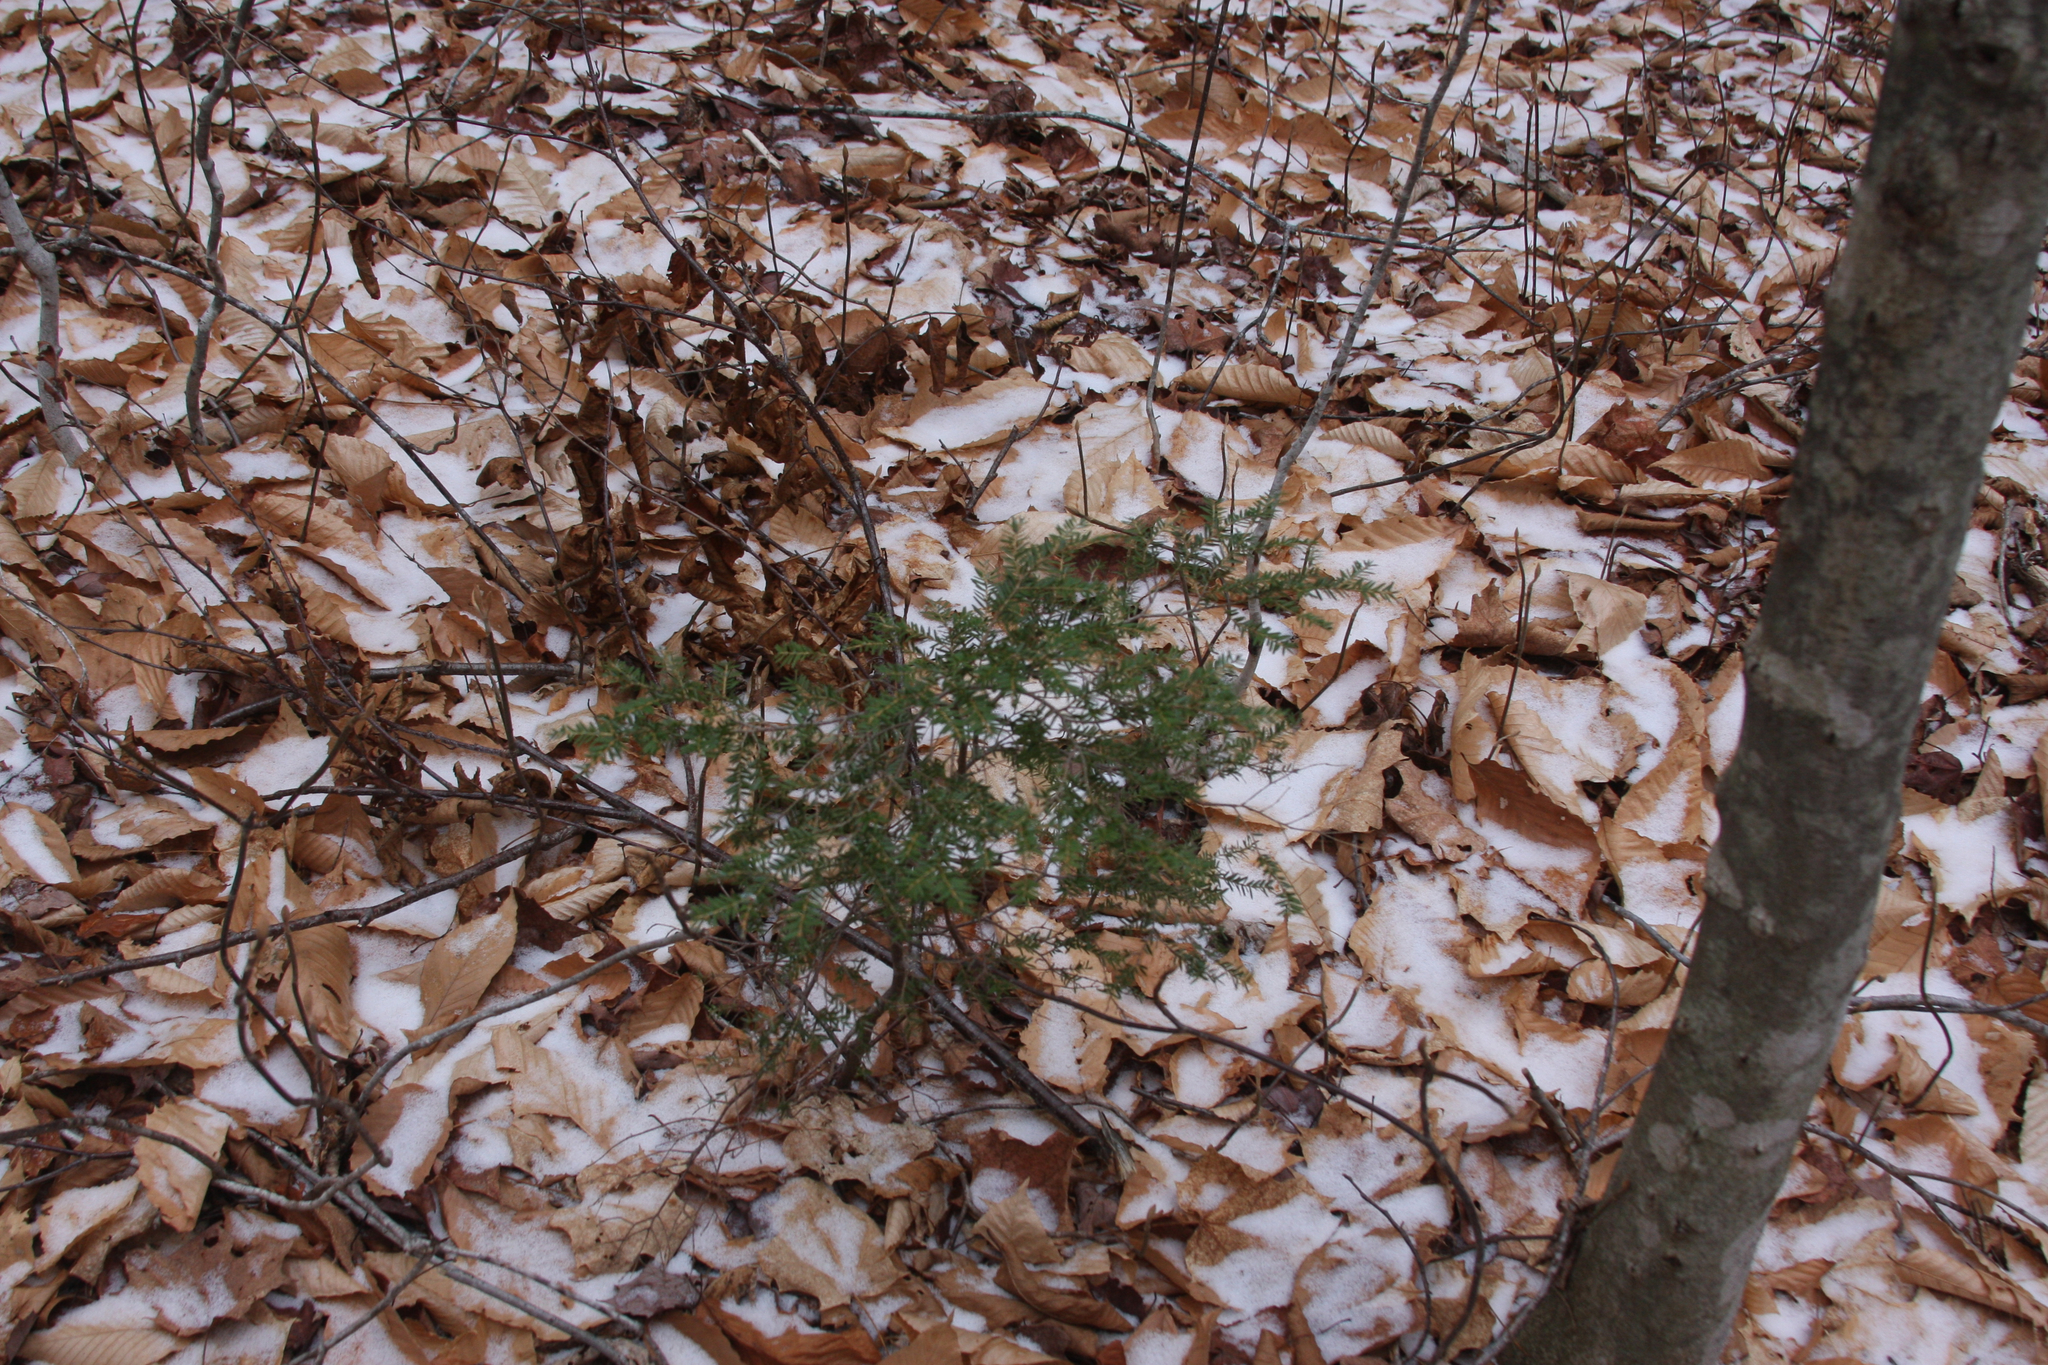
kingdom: Plantae
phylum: Tracheophyta
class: Pinopsida
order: Pinales
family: Pinaceae
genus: Tsuga
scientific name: Tsuga canadensis
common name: Eastern hemlock
